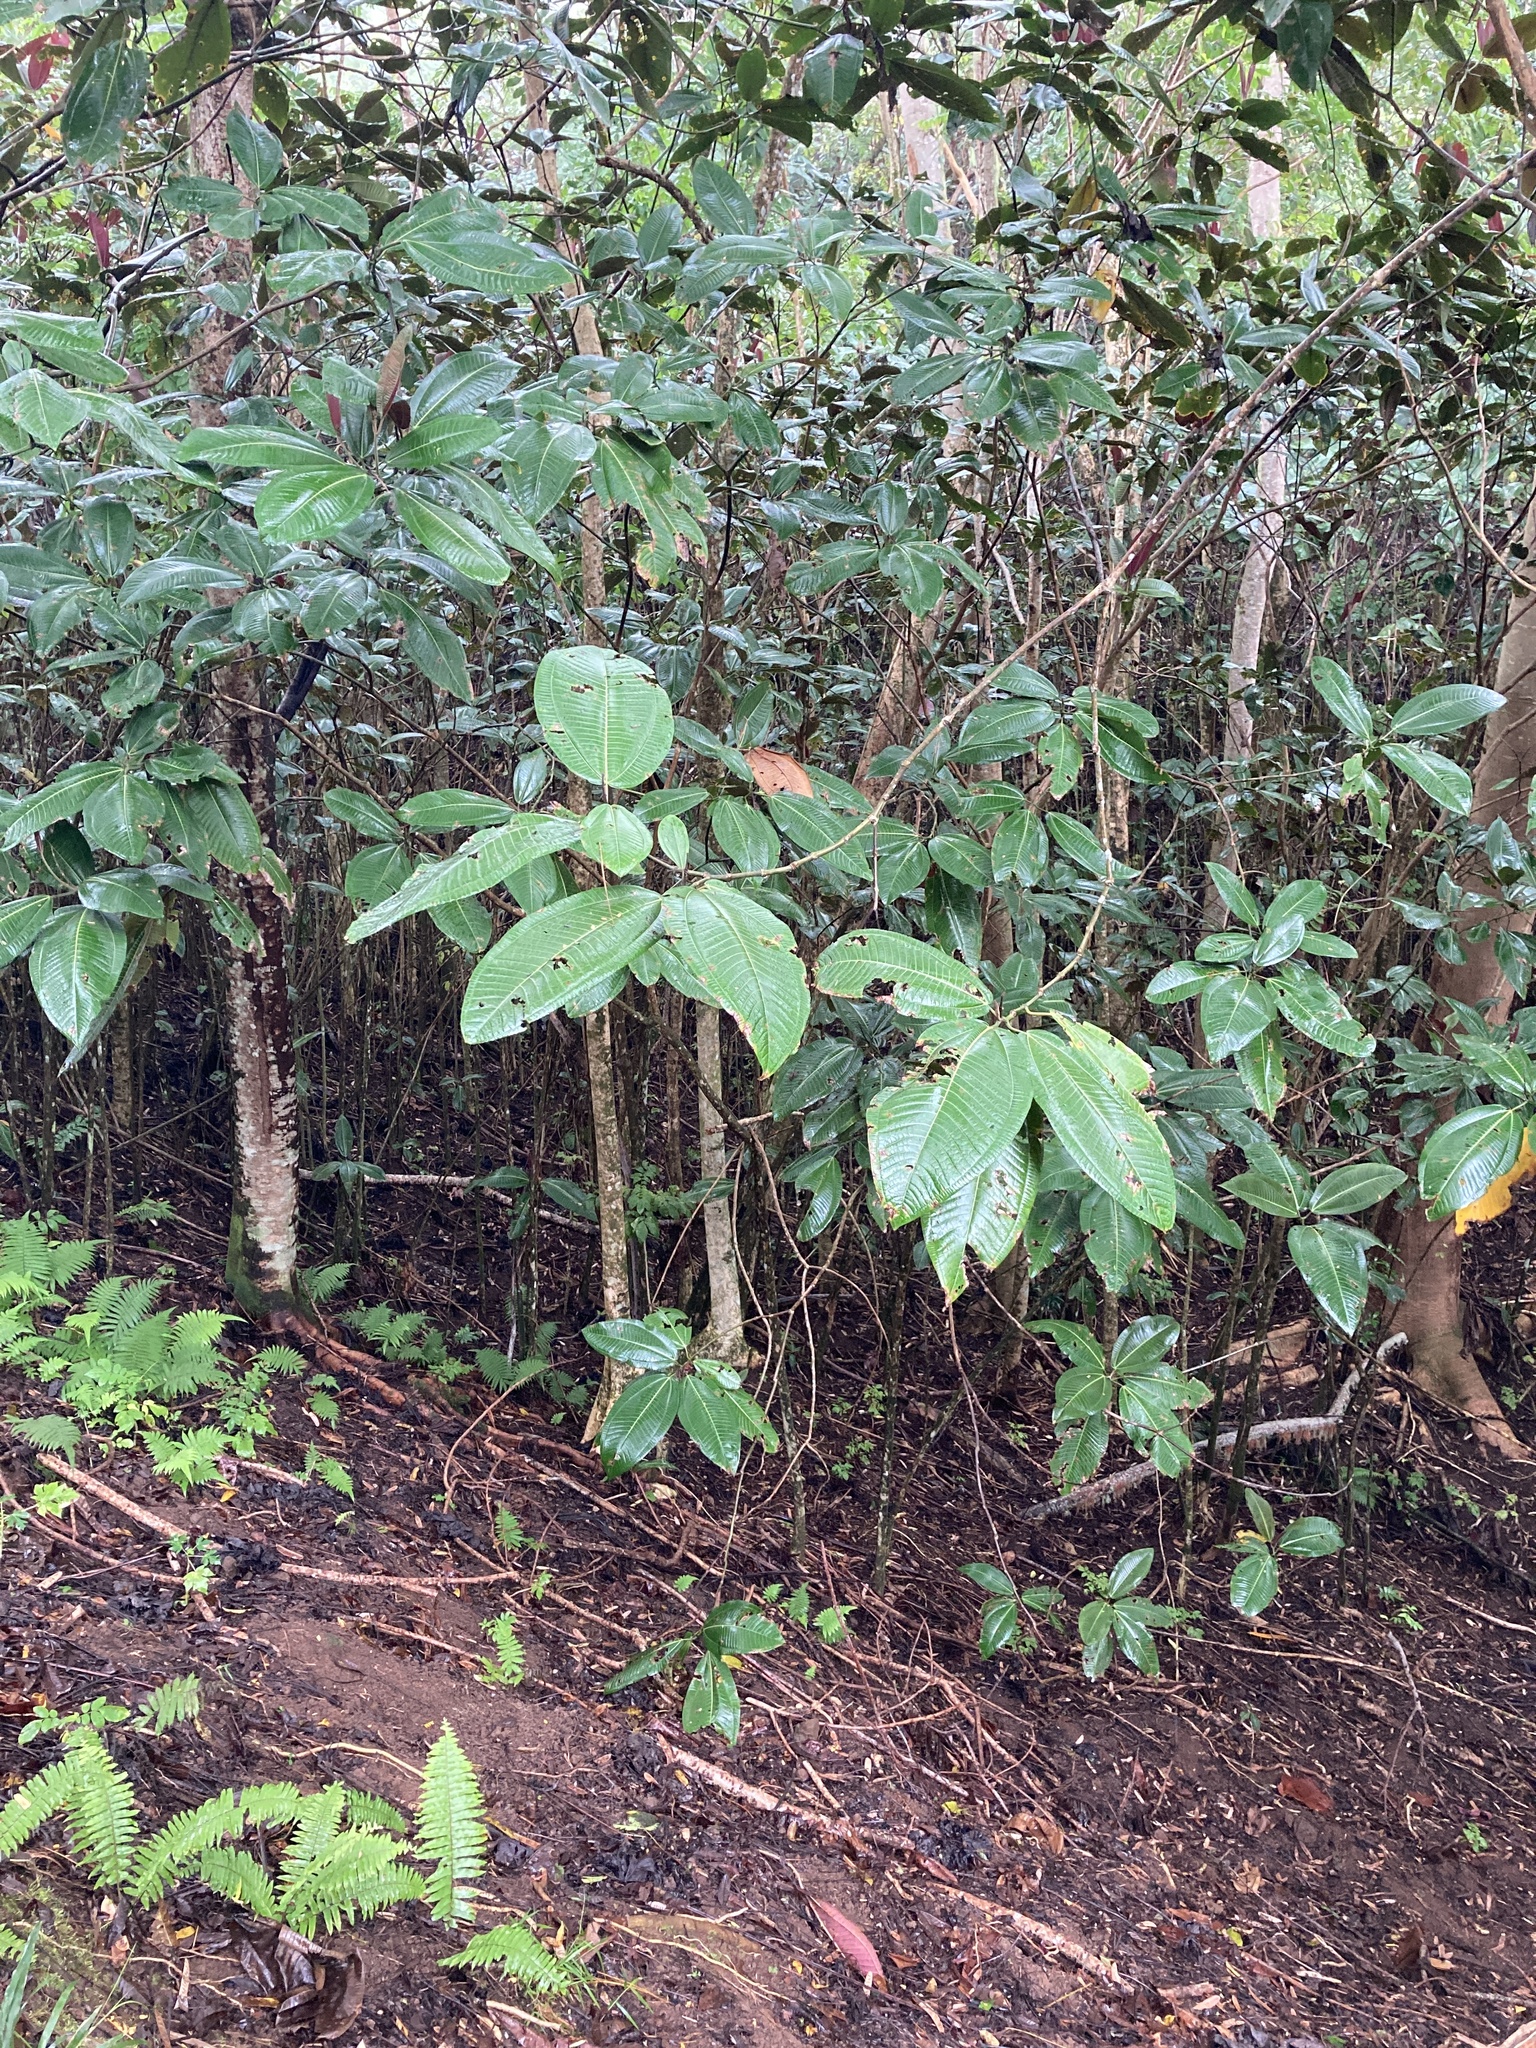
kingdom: Plantae
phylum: Tracheophyta
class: Magnoliopsida
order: Myrtales
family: Melastomataceae
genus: Miconia
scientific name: Miconia calvescens
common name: Purple plague
